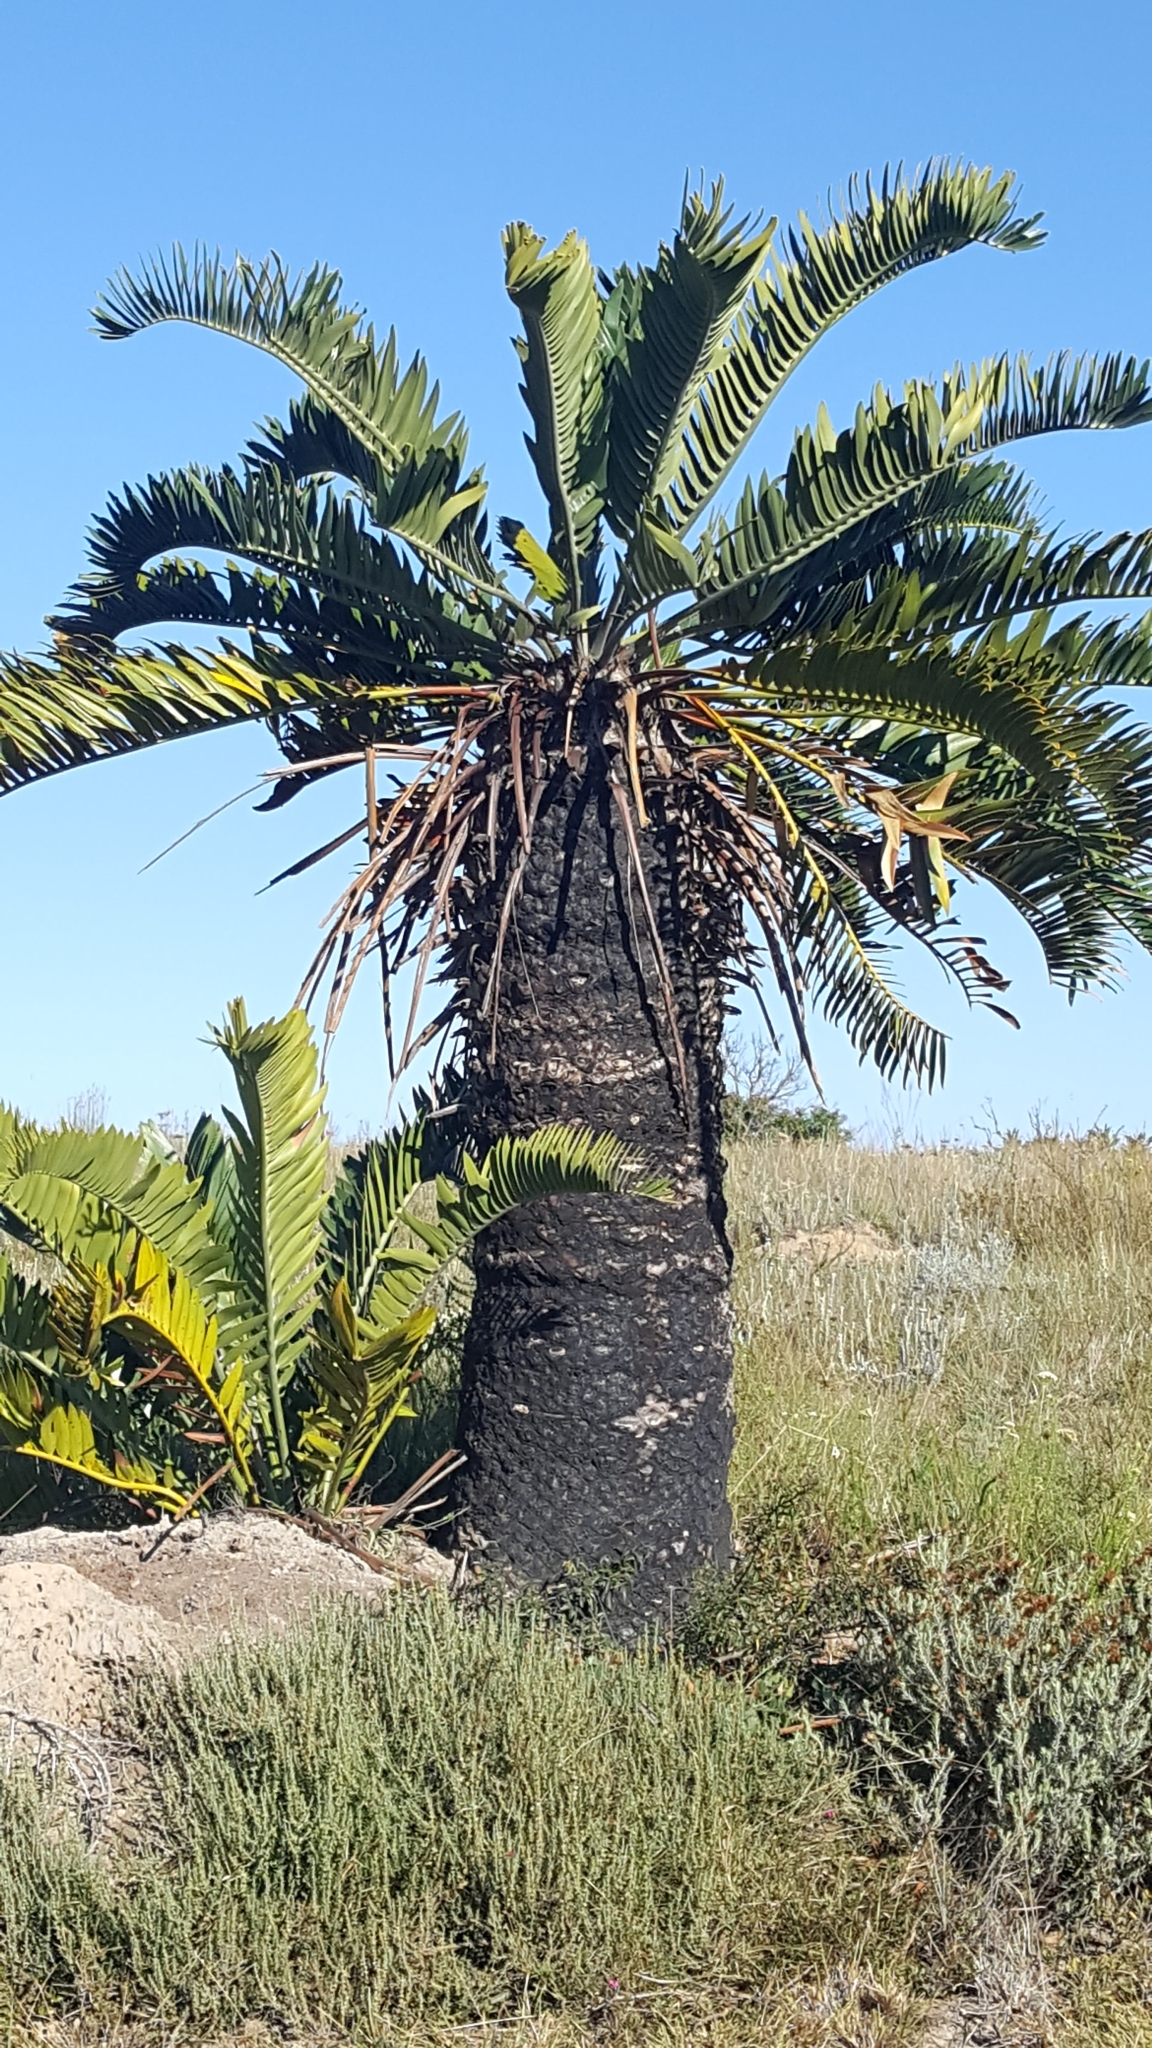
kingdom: Plantae
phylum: Tracheophyta
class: Cycadopsida
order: Cycadales
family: Zamiaceae
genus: Encephalartos
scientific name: Encephalartos longifolius
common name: Suurberg cycad
